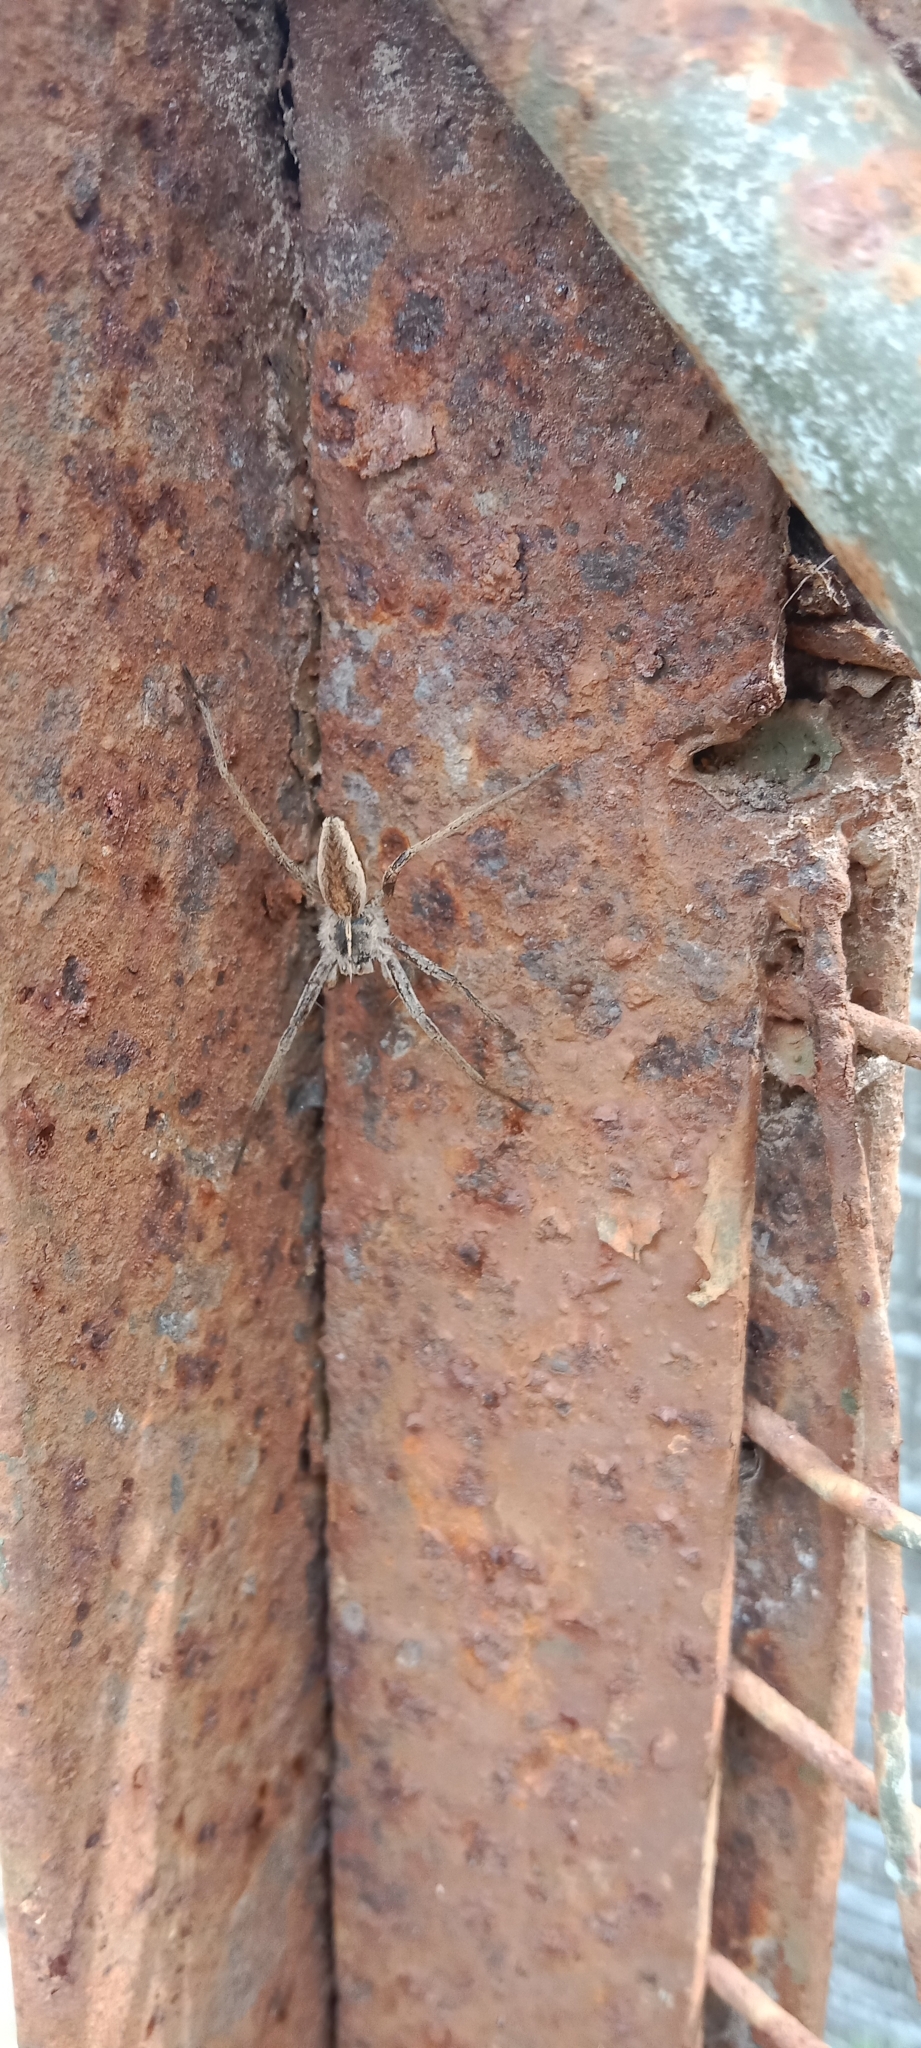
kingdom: Animalia
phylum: Arthropoda
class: Arachnida
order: Araneae
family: Pisauridae
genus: Pisaura
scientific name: Pisaura
